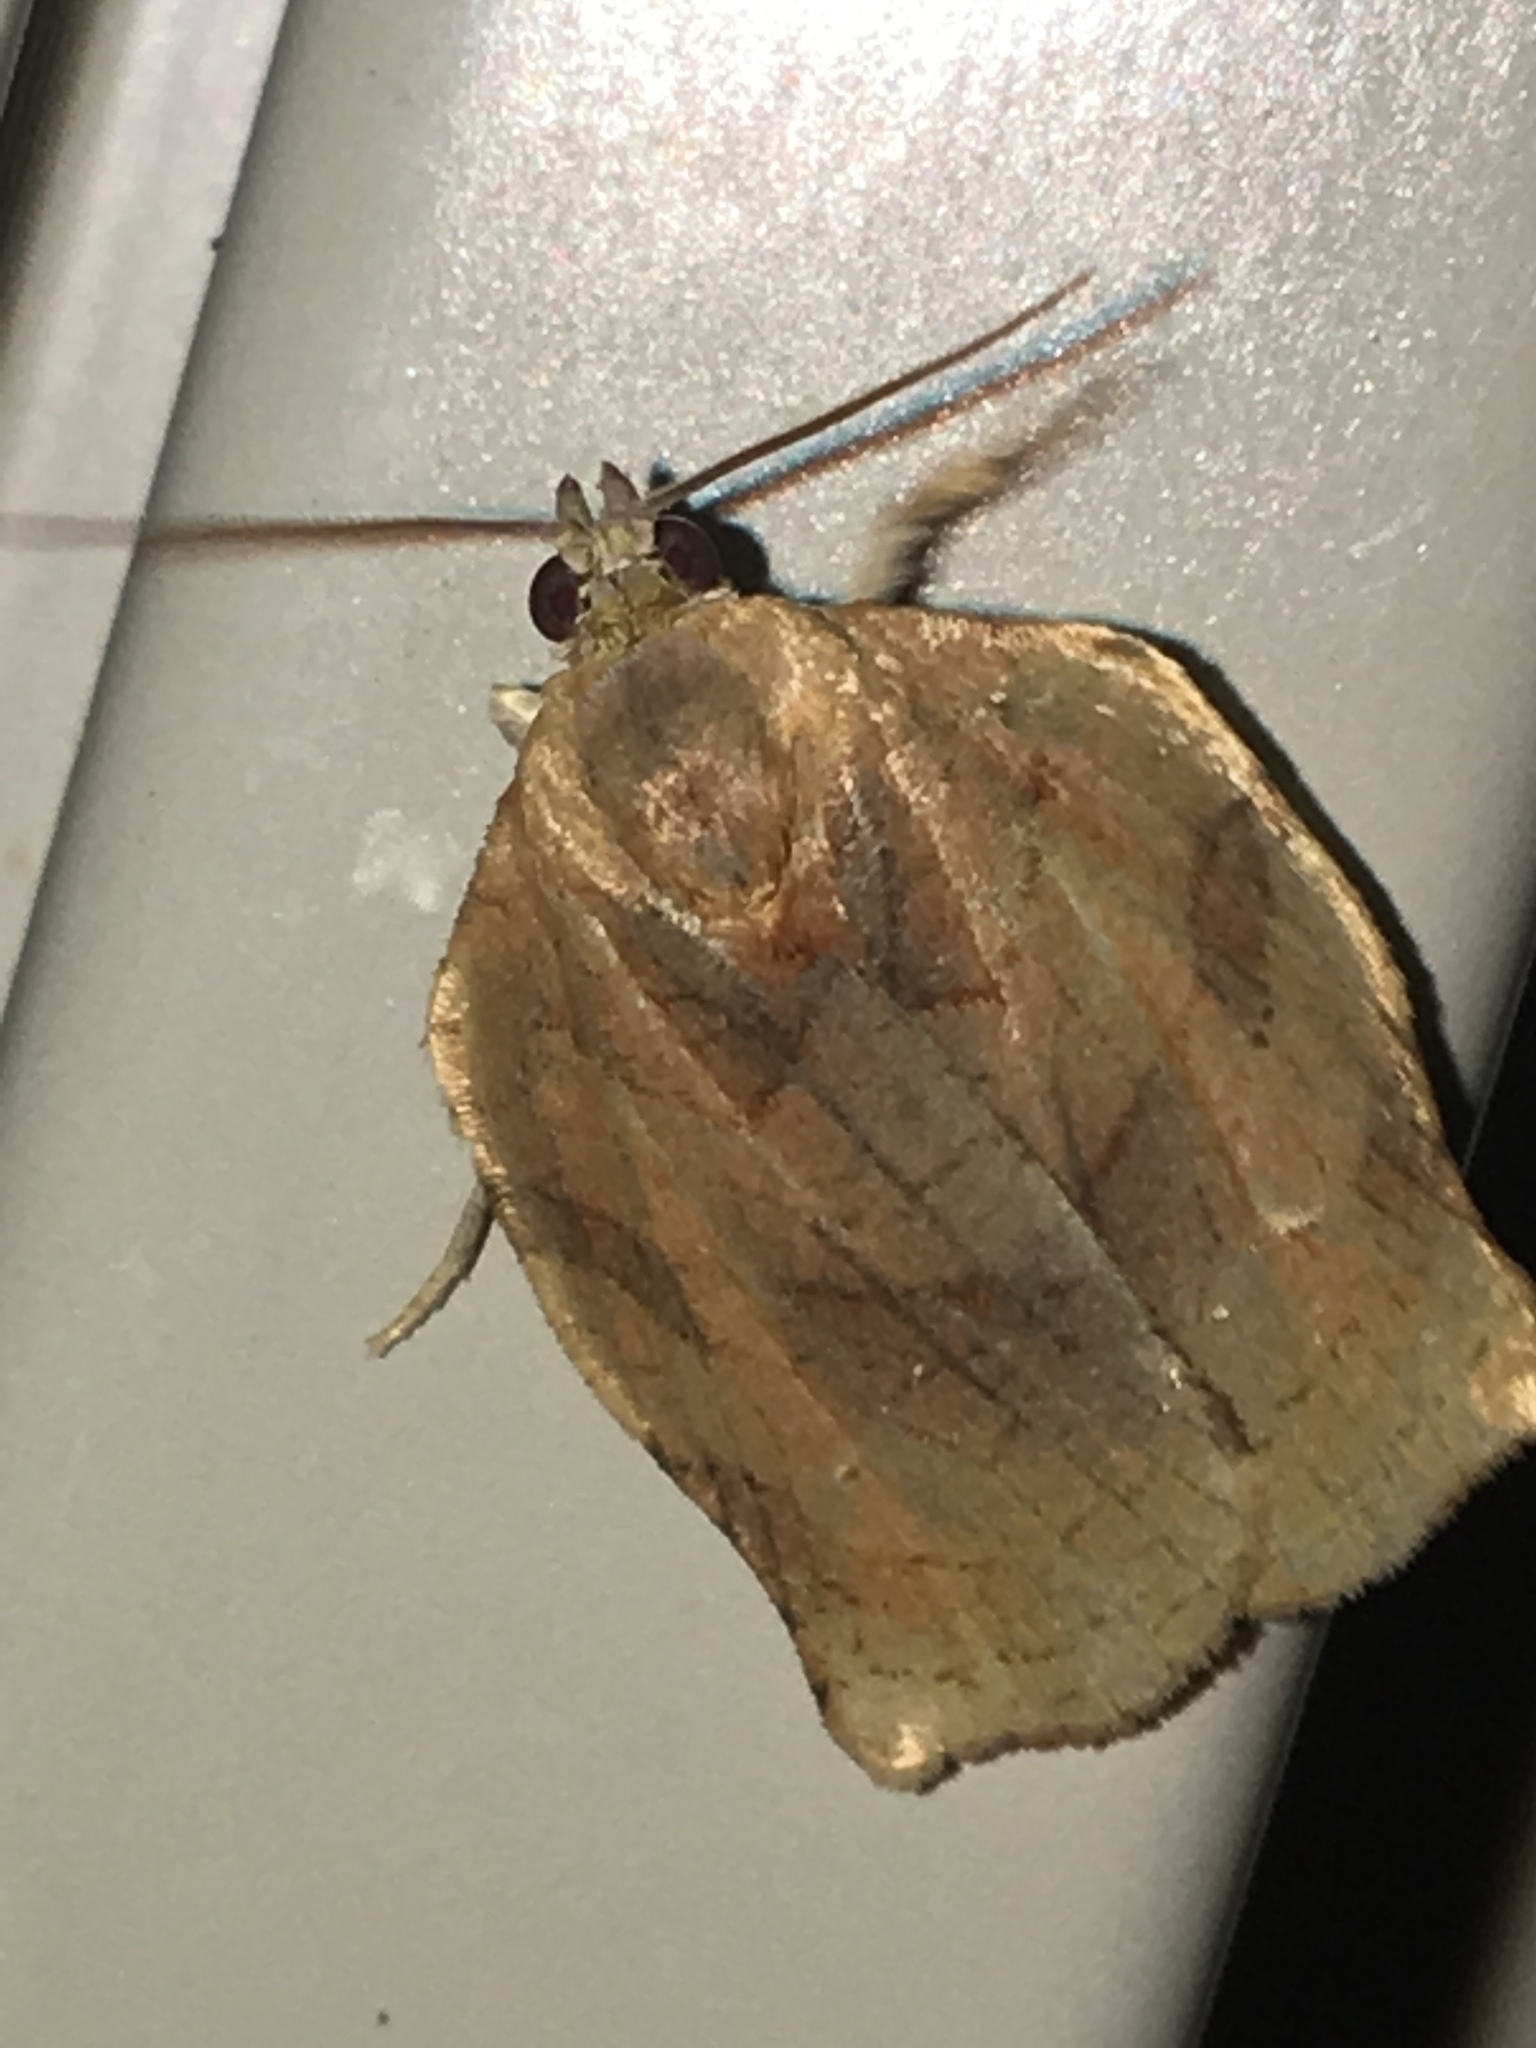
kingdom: Animalia
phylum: Arthropoda
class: Insecta
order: Lepidoptera
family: Tortricidae
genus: Archips
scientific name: Archips purpurana
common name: Omnivorous leafroller
